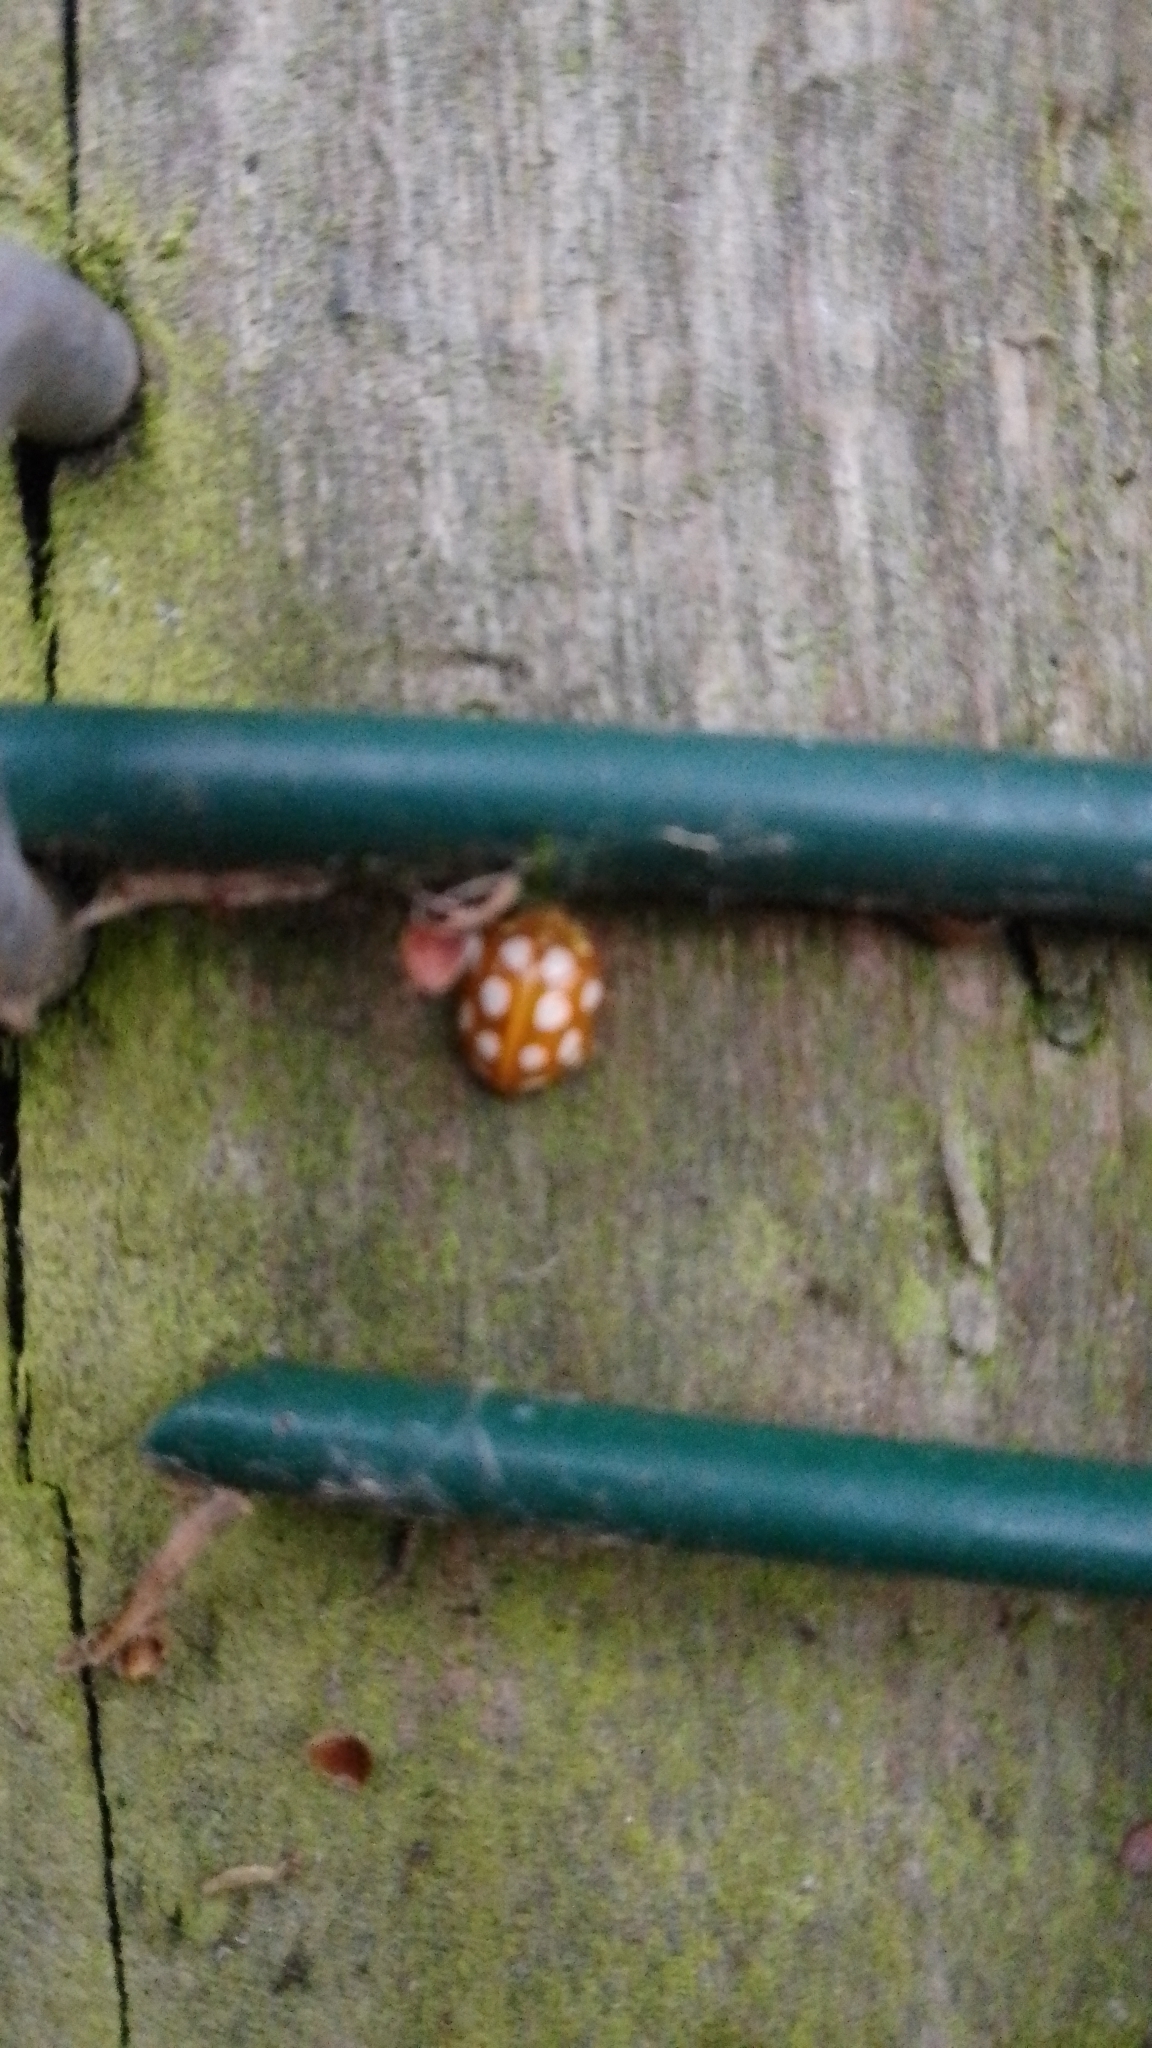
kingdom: Animalia
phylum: Arthropoda
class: Insecta
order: Coleoptera
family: Coccinellidae
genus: Halyzia
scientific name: Halyzia sedecimguttata
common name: Orange ladybird
